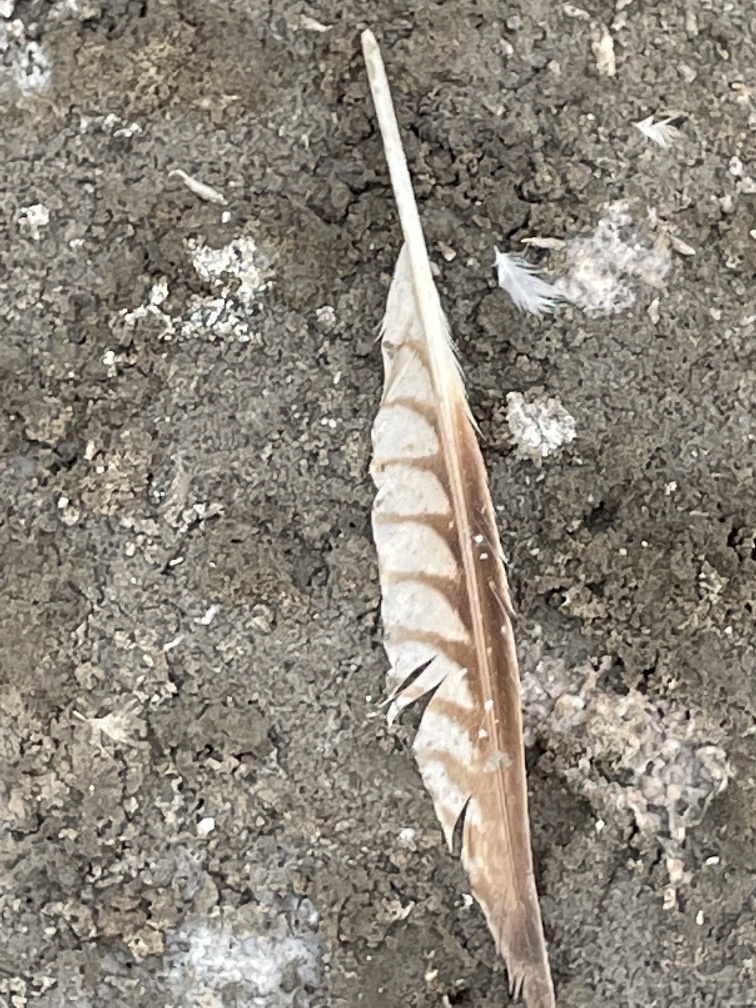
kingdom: Animalia
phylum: Chordata
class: Aves
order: Charadriiformes
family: Scolopacidae
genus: Numenius
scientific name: Numenius americanus
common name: Long-billed curlew
